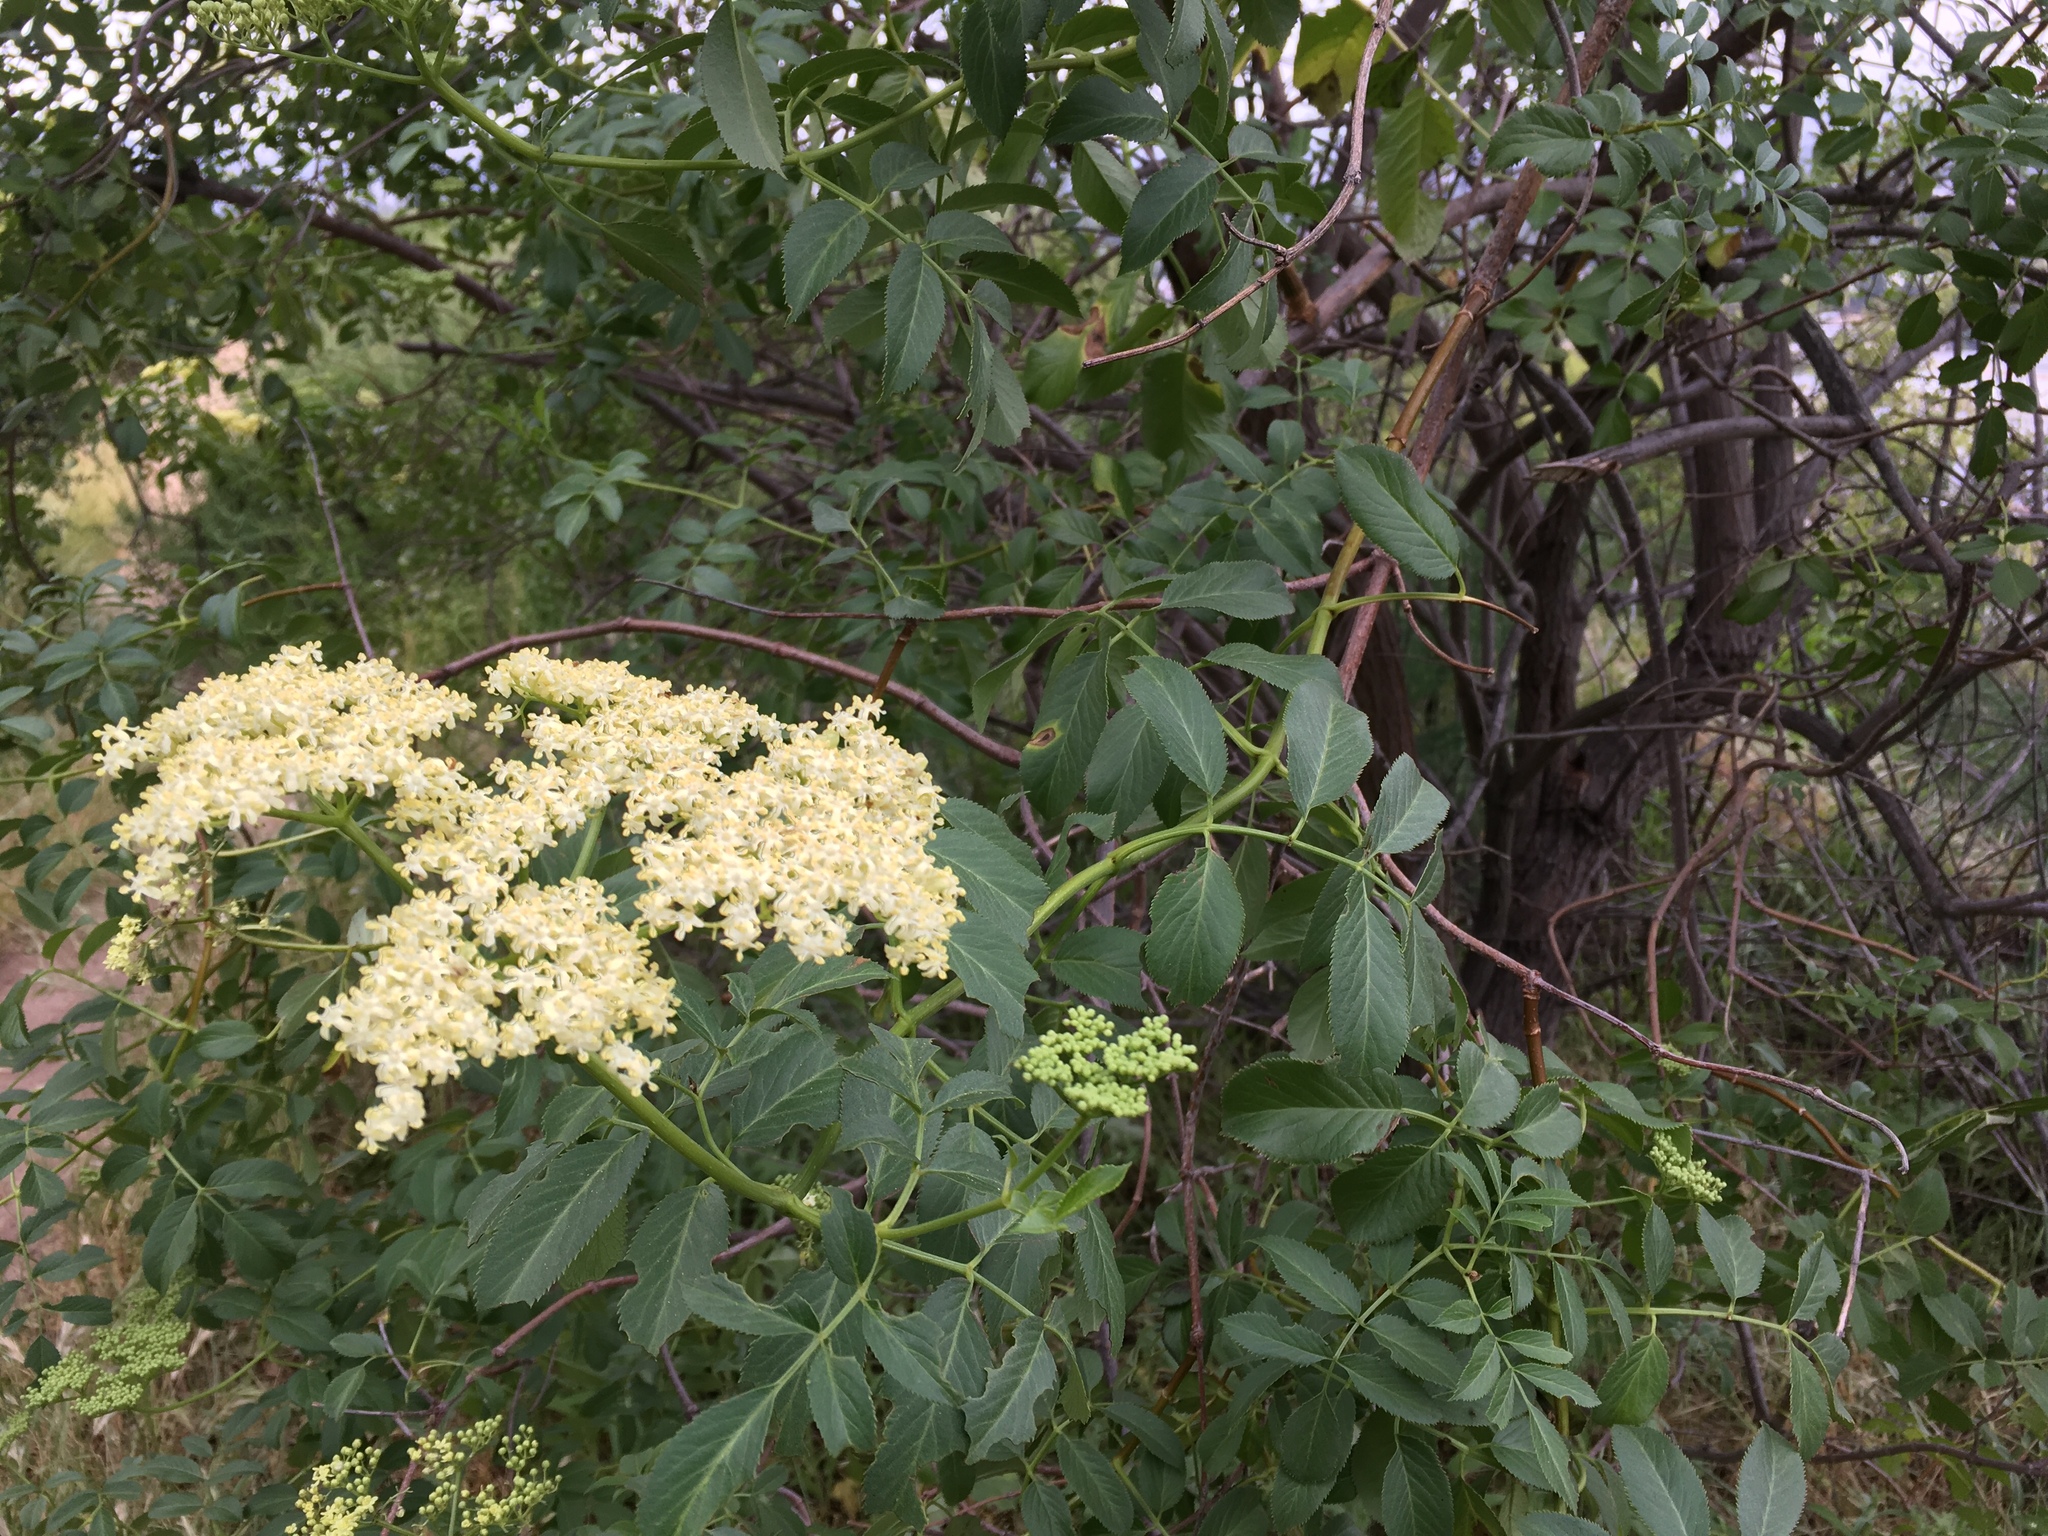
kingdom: Plantae
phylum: Tracheophyta
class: Magnoliopsida
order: Dipsacales
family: Viburnaceae
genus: Sambucus
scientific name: Sambucus cerulea
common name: Blue elder
